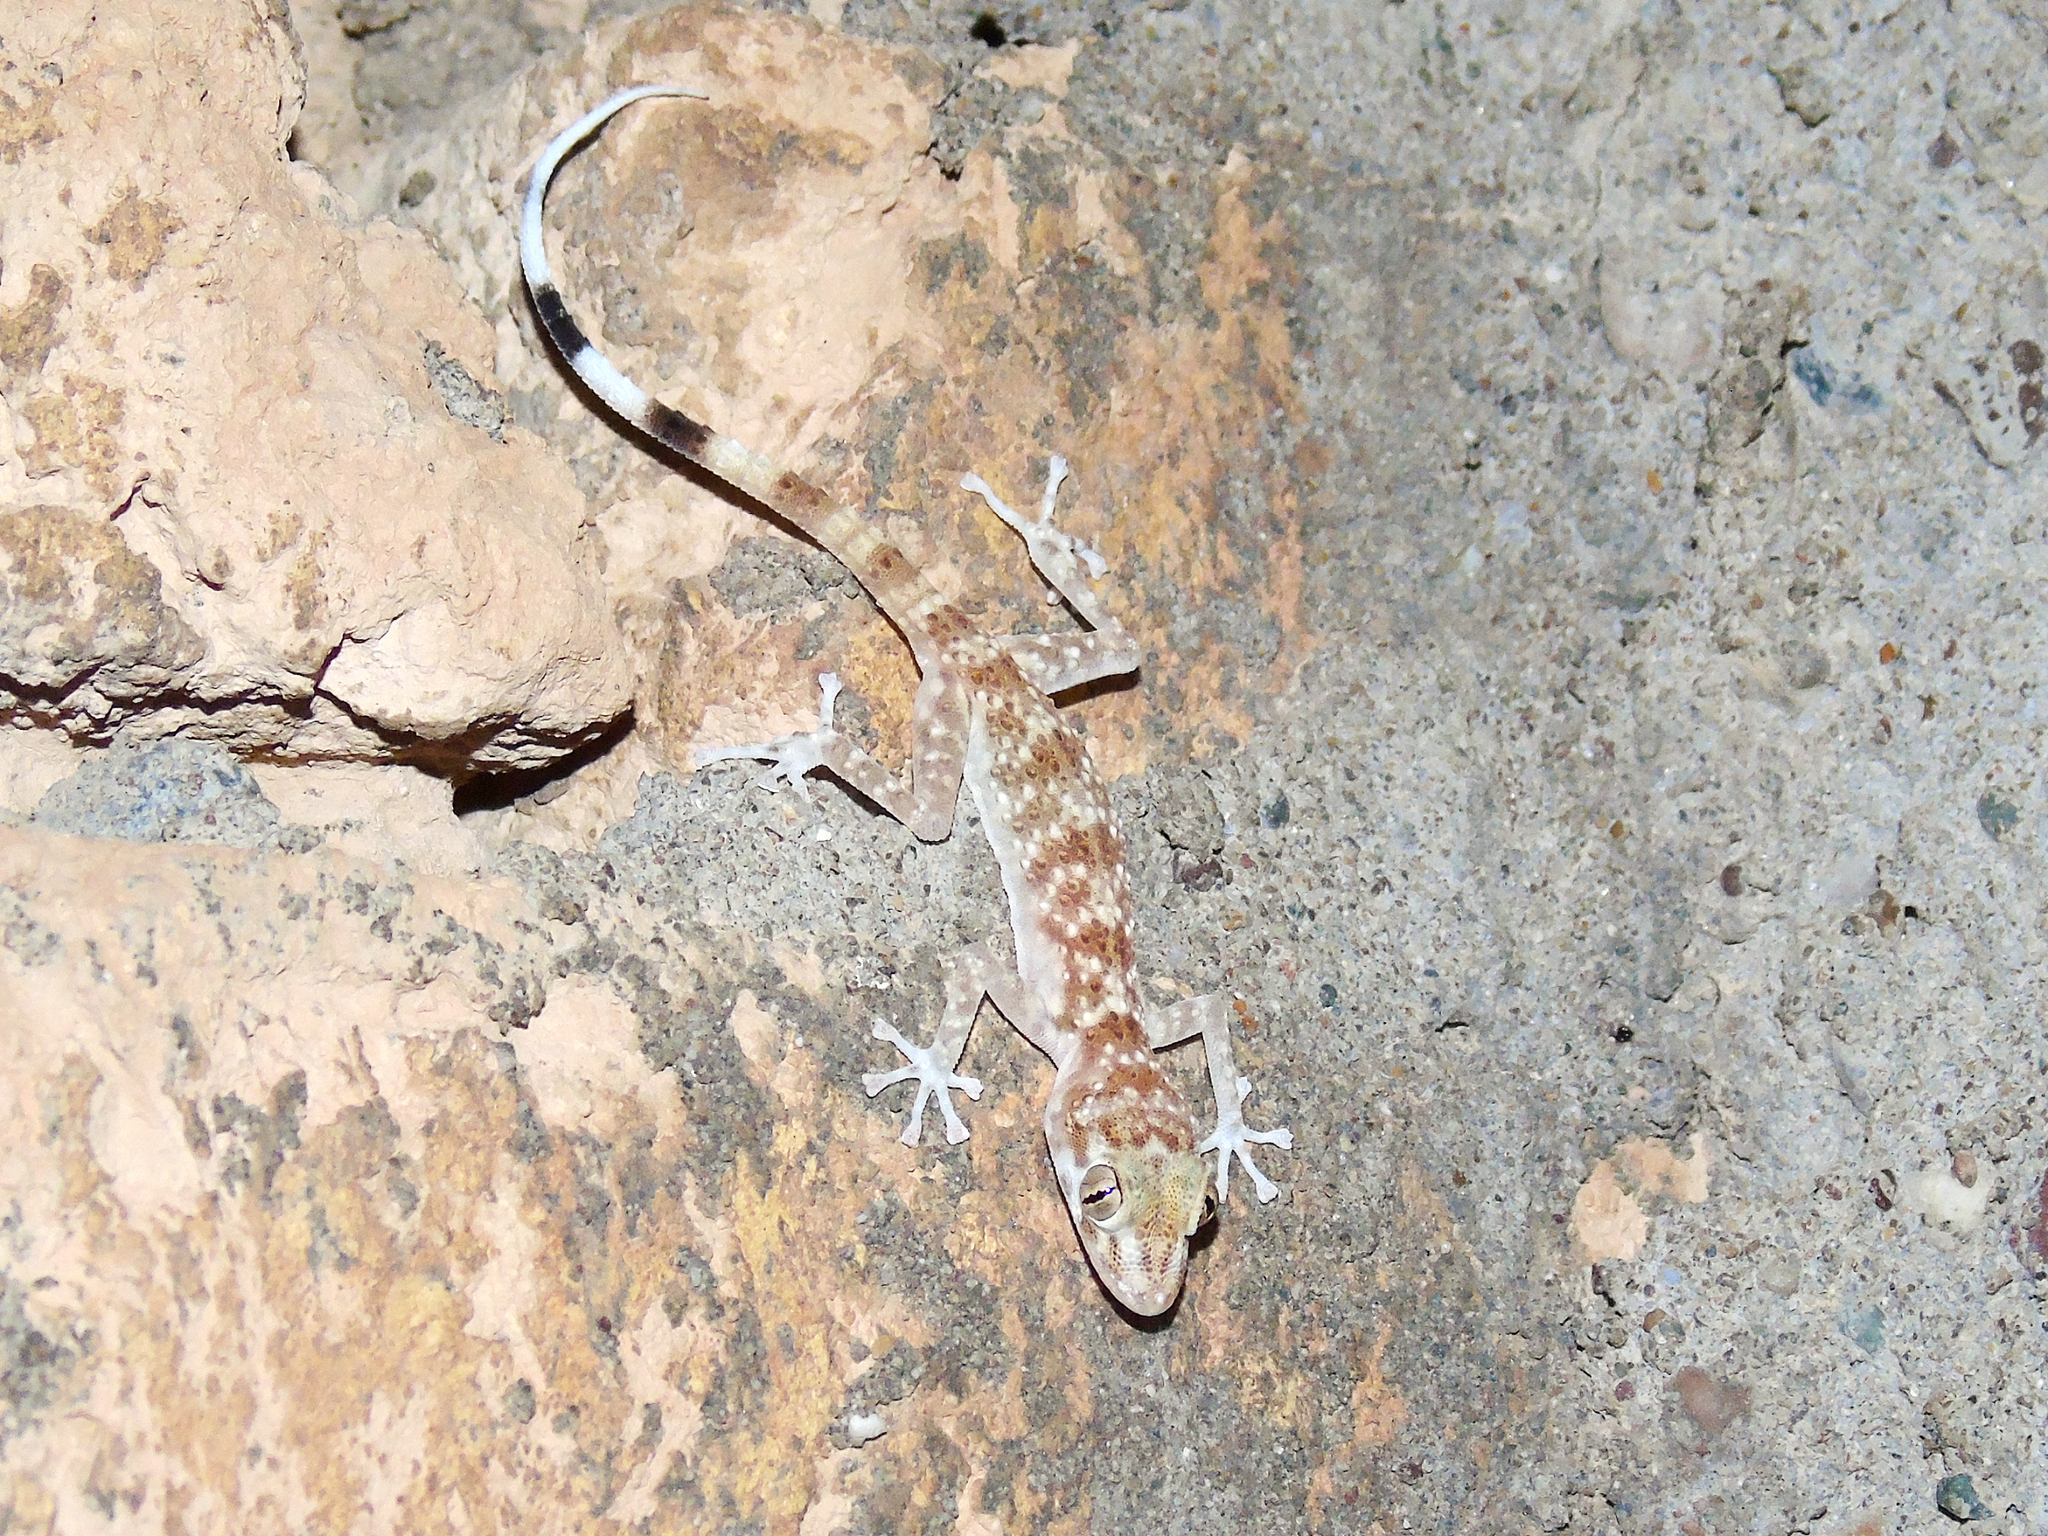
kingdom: Animalia
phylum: Chordata
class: Squamata
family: Phyllodactylidae
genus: Asaccus
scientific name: Asaccus elisae
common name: Leaf-toed gecko
